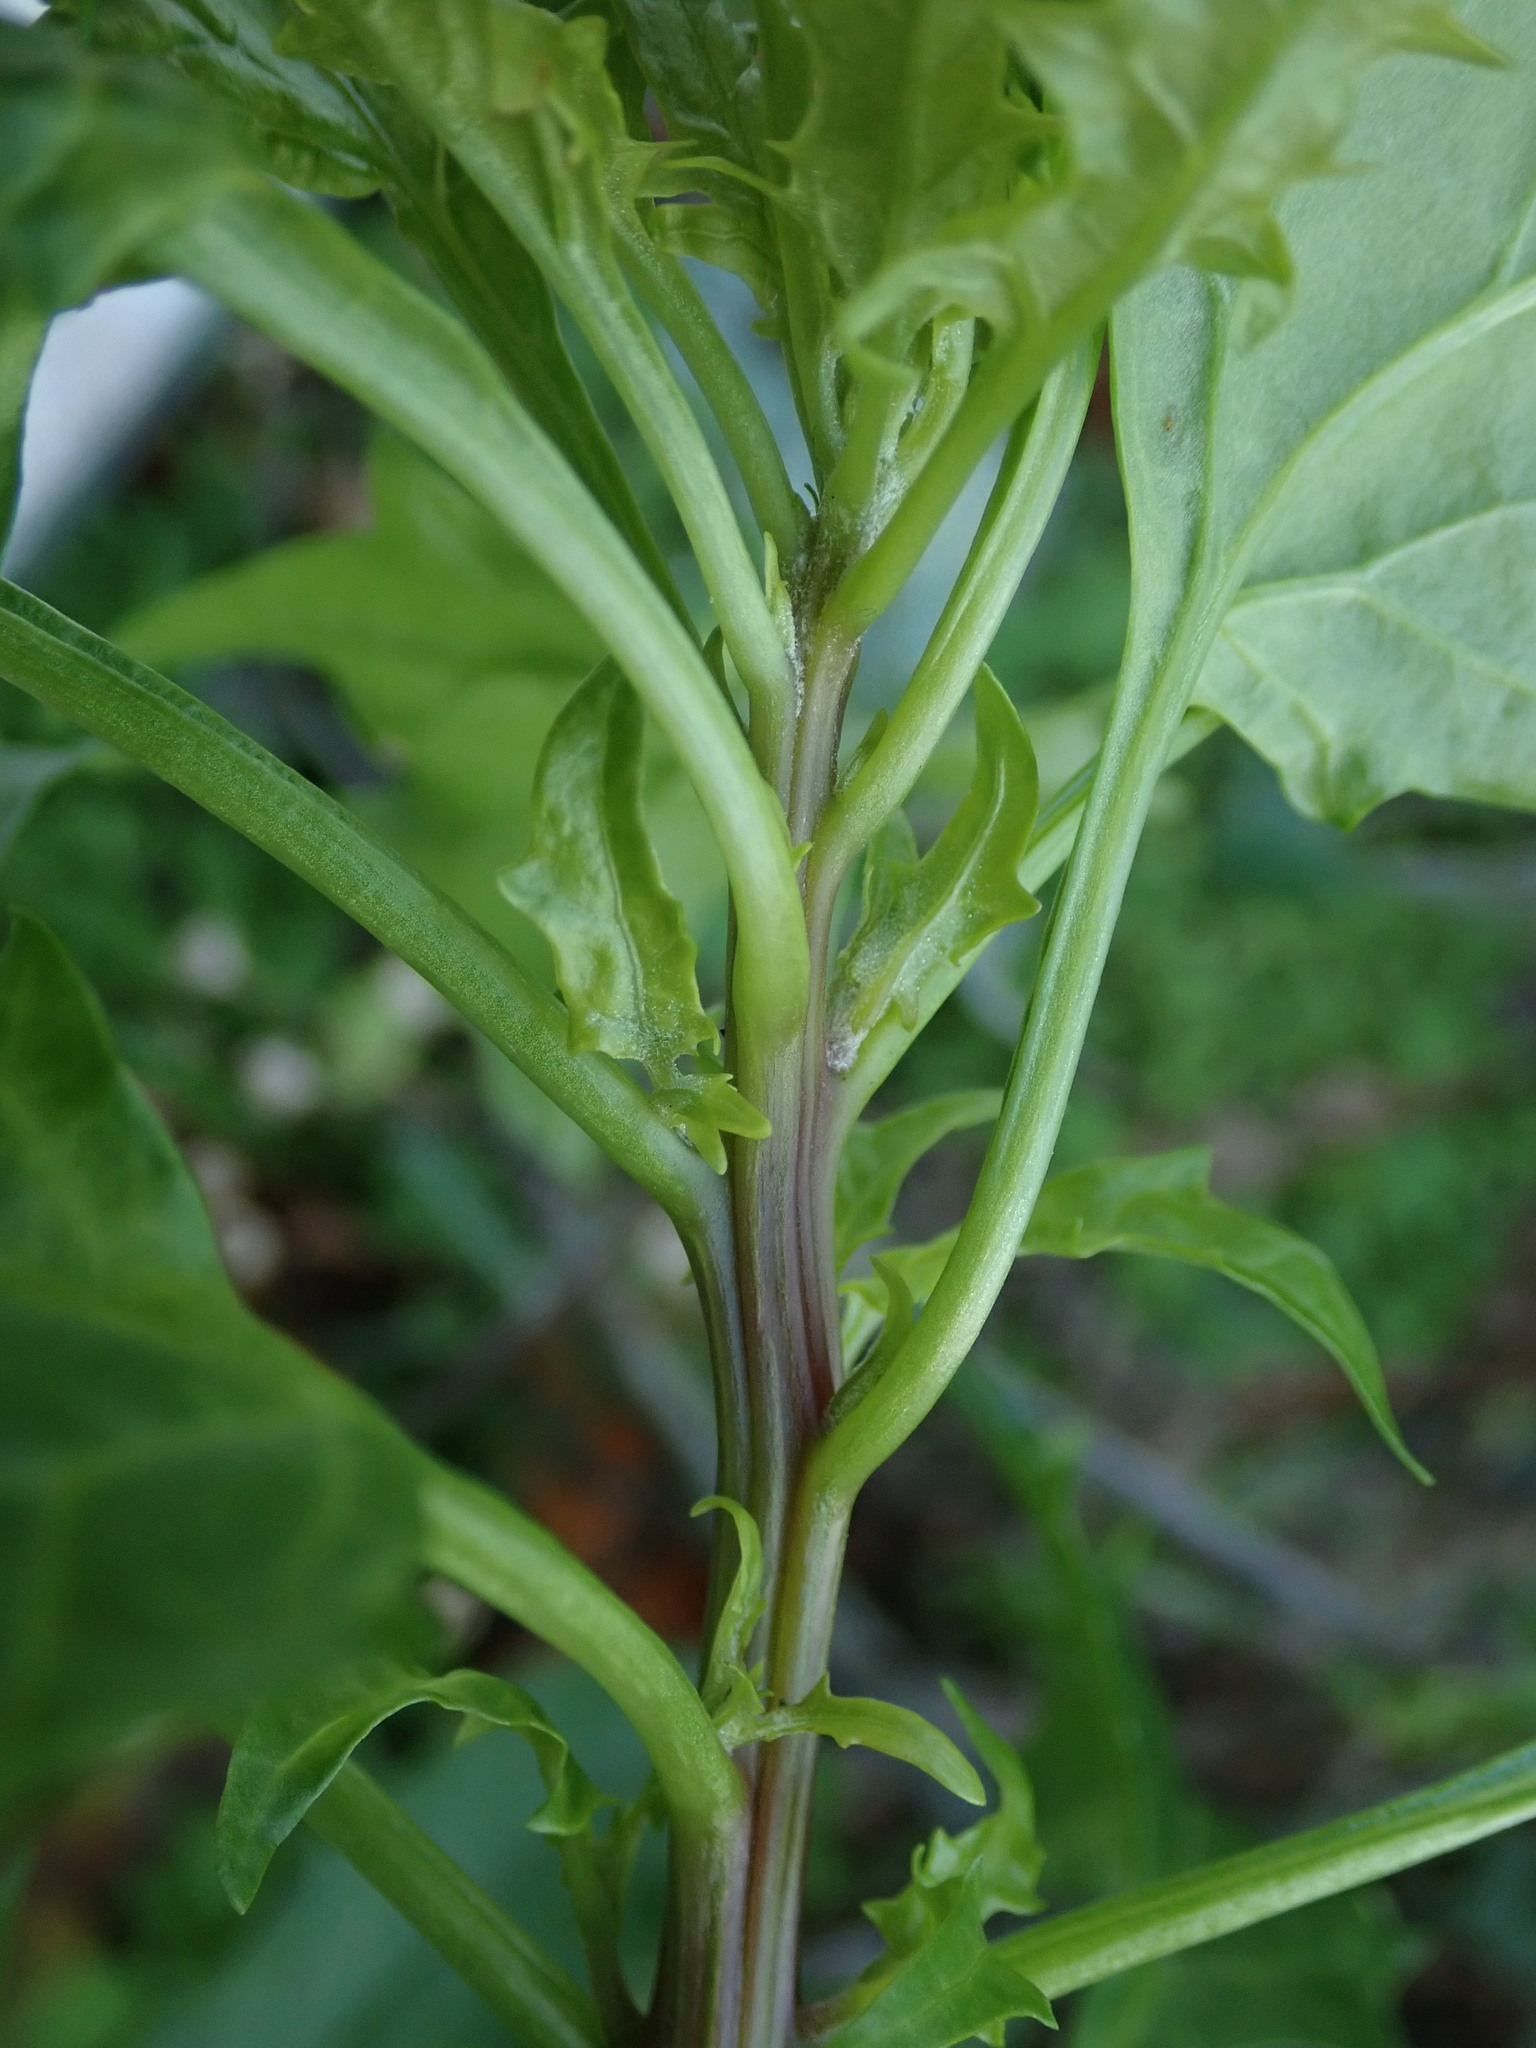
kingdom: Plantae
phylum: Tracheophyta
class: Magnoliopsida
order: Caryophyllales
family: Amaranthaceae
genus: Oxybasis
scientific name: Oxybasis rubra
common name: Red goosefoot
